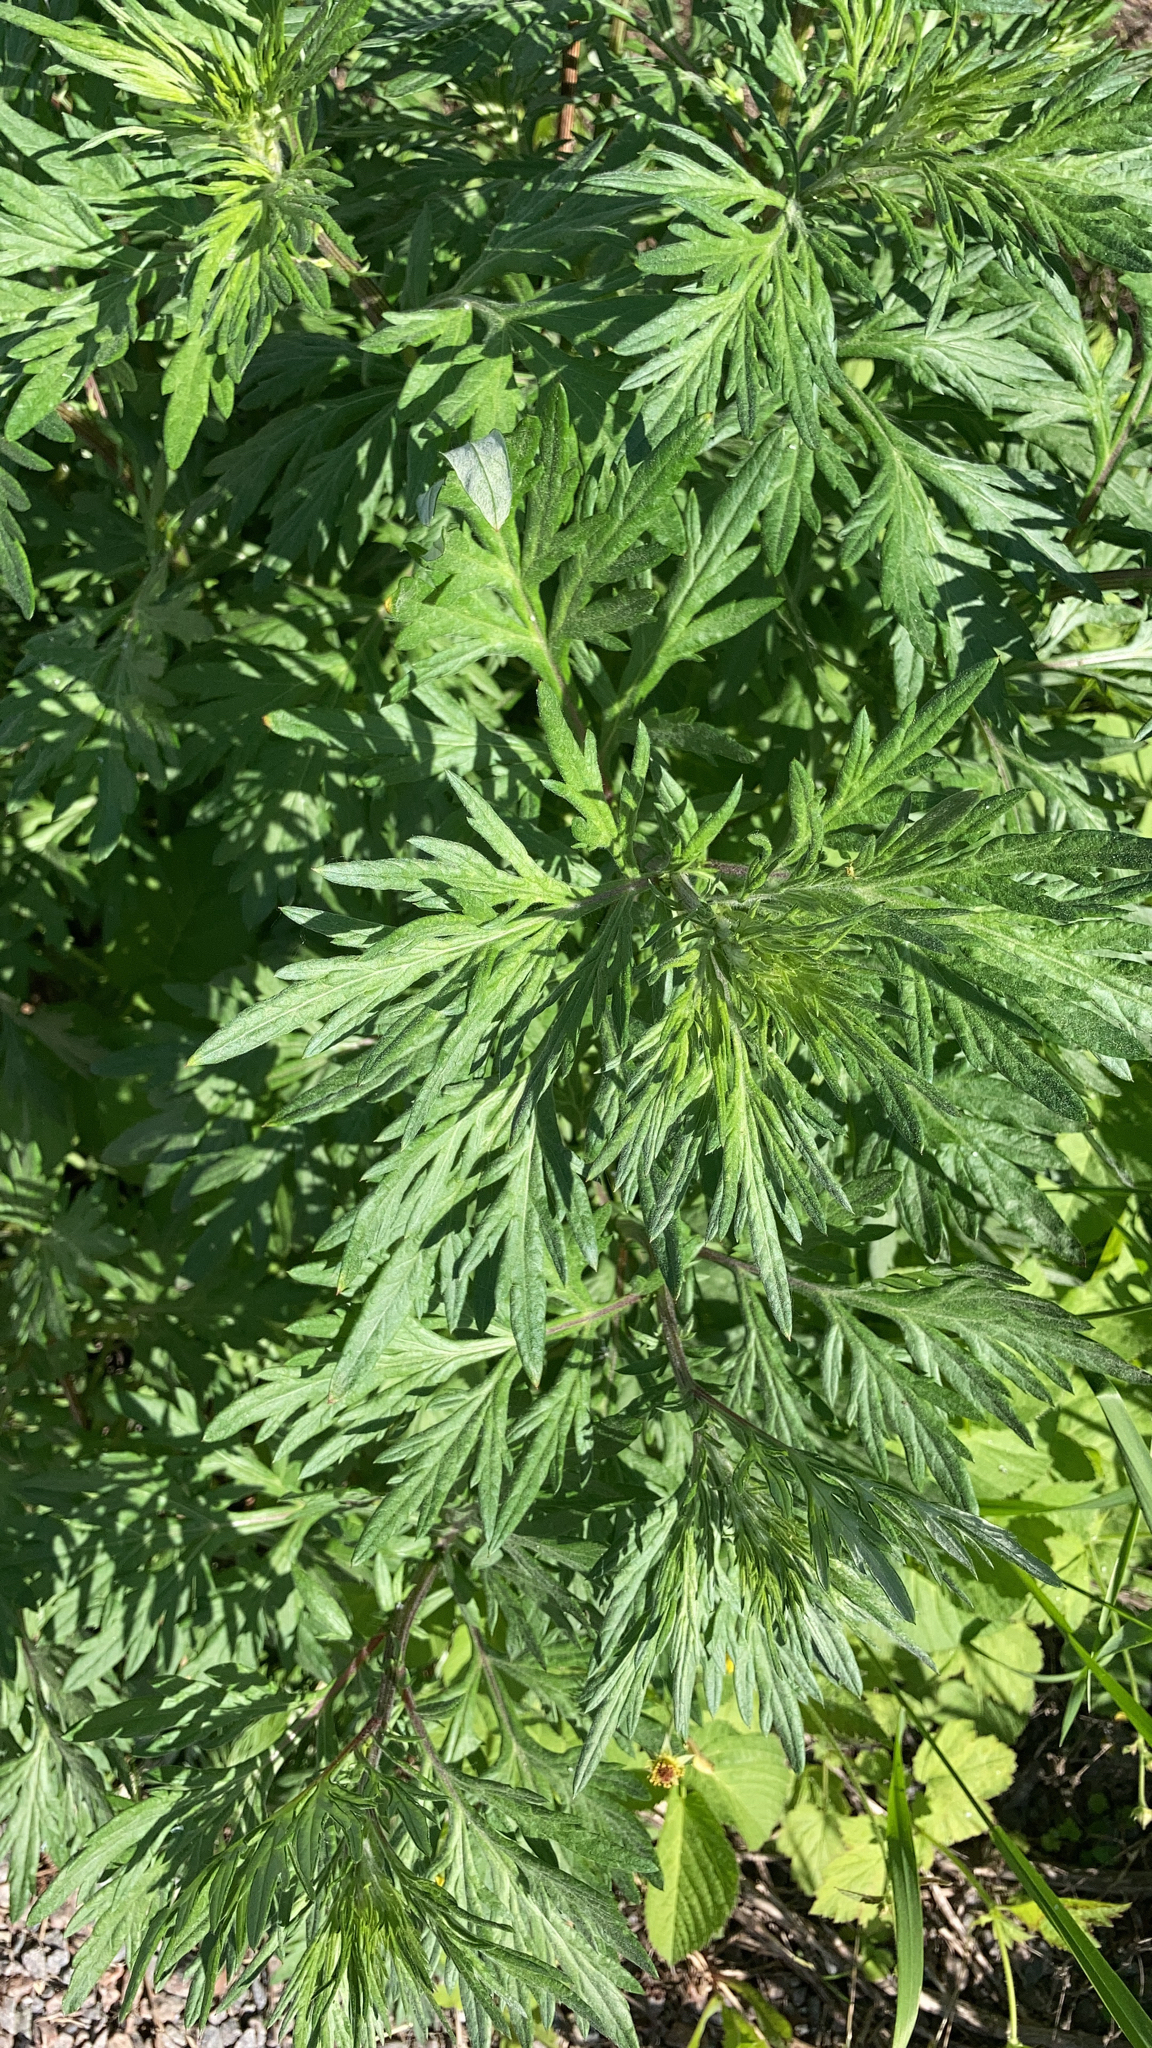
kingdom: Plantae
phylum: Tracheophyta
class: Magnoliopsida
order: Asterales
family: Asteraceae
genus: Artemisia
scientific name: Artemisia vulgaris
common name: Mugwort
